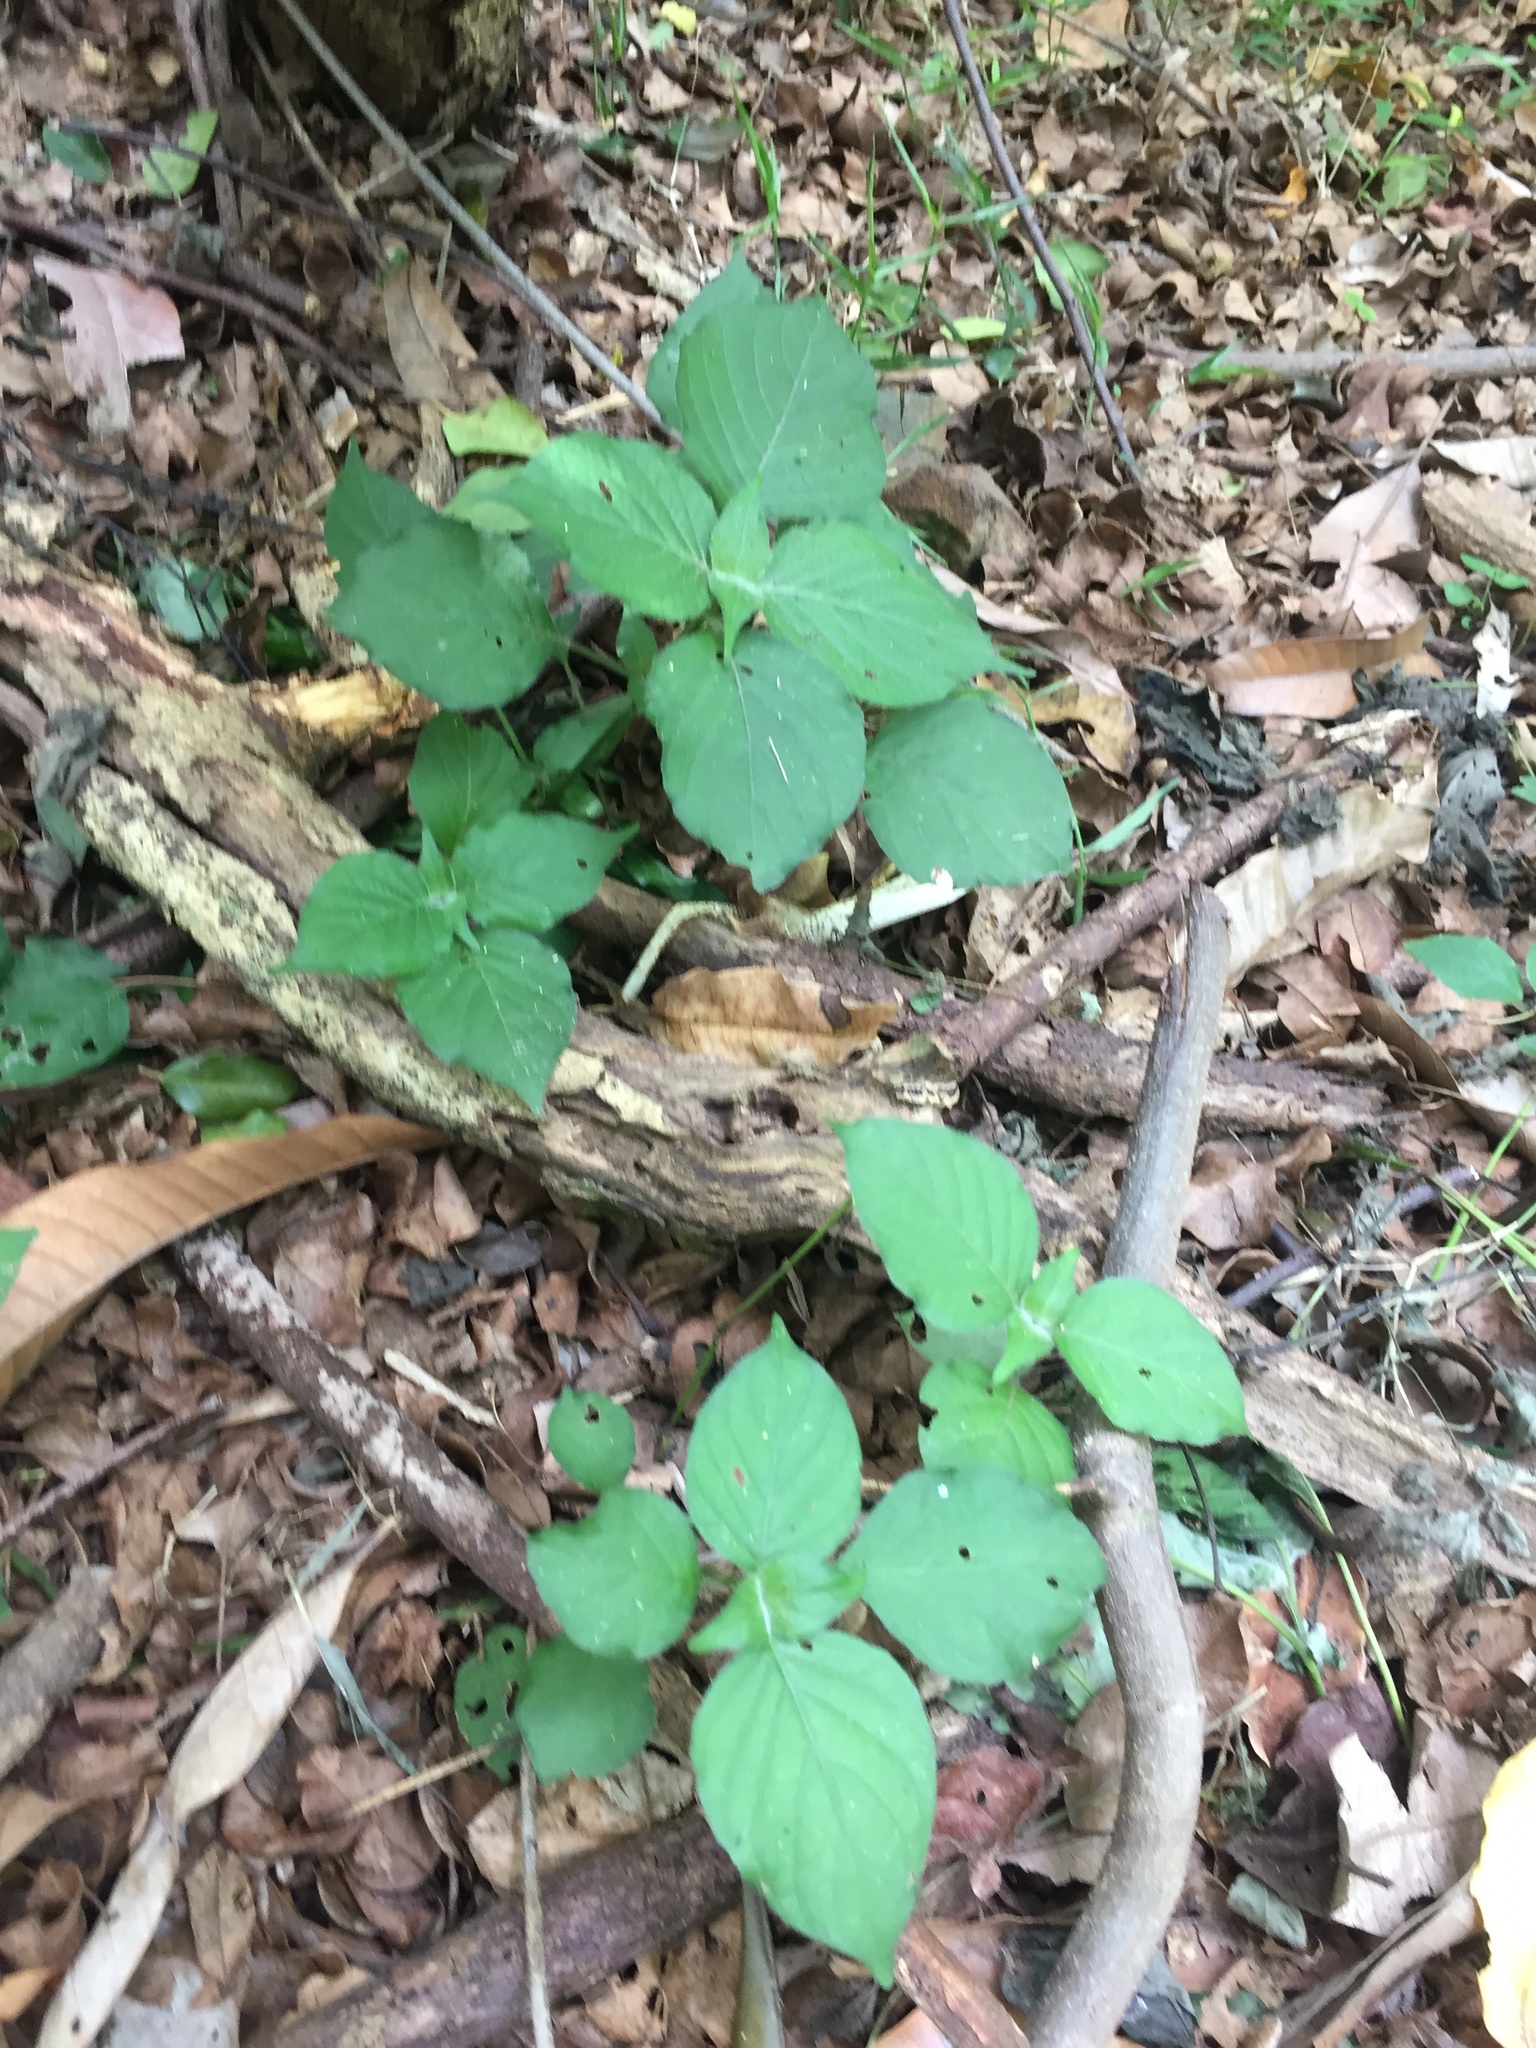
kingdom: Plantae
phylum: Tracheophyta
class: Magnoliopsida
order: Lamiales
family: Acanthaceae
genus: Isoglossa
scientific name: Isoglossa woodii
